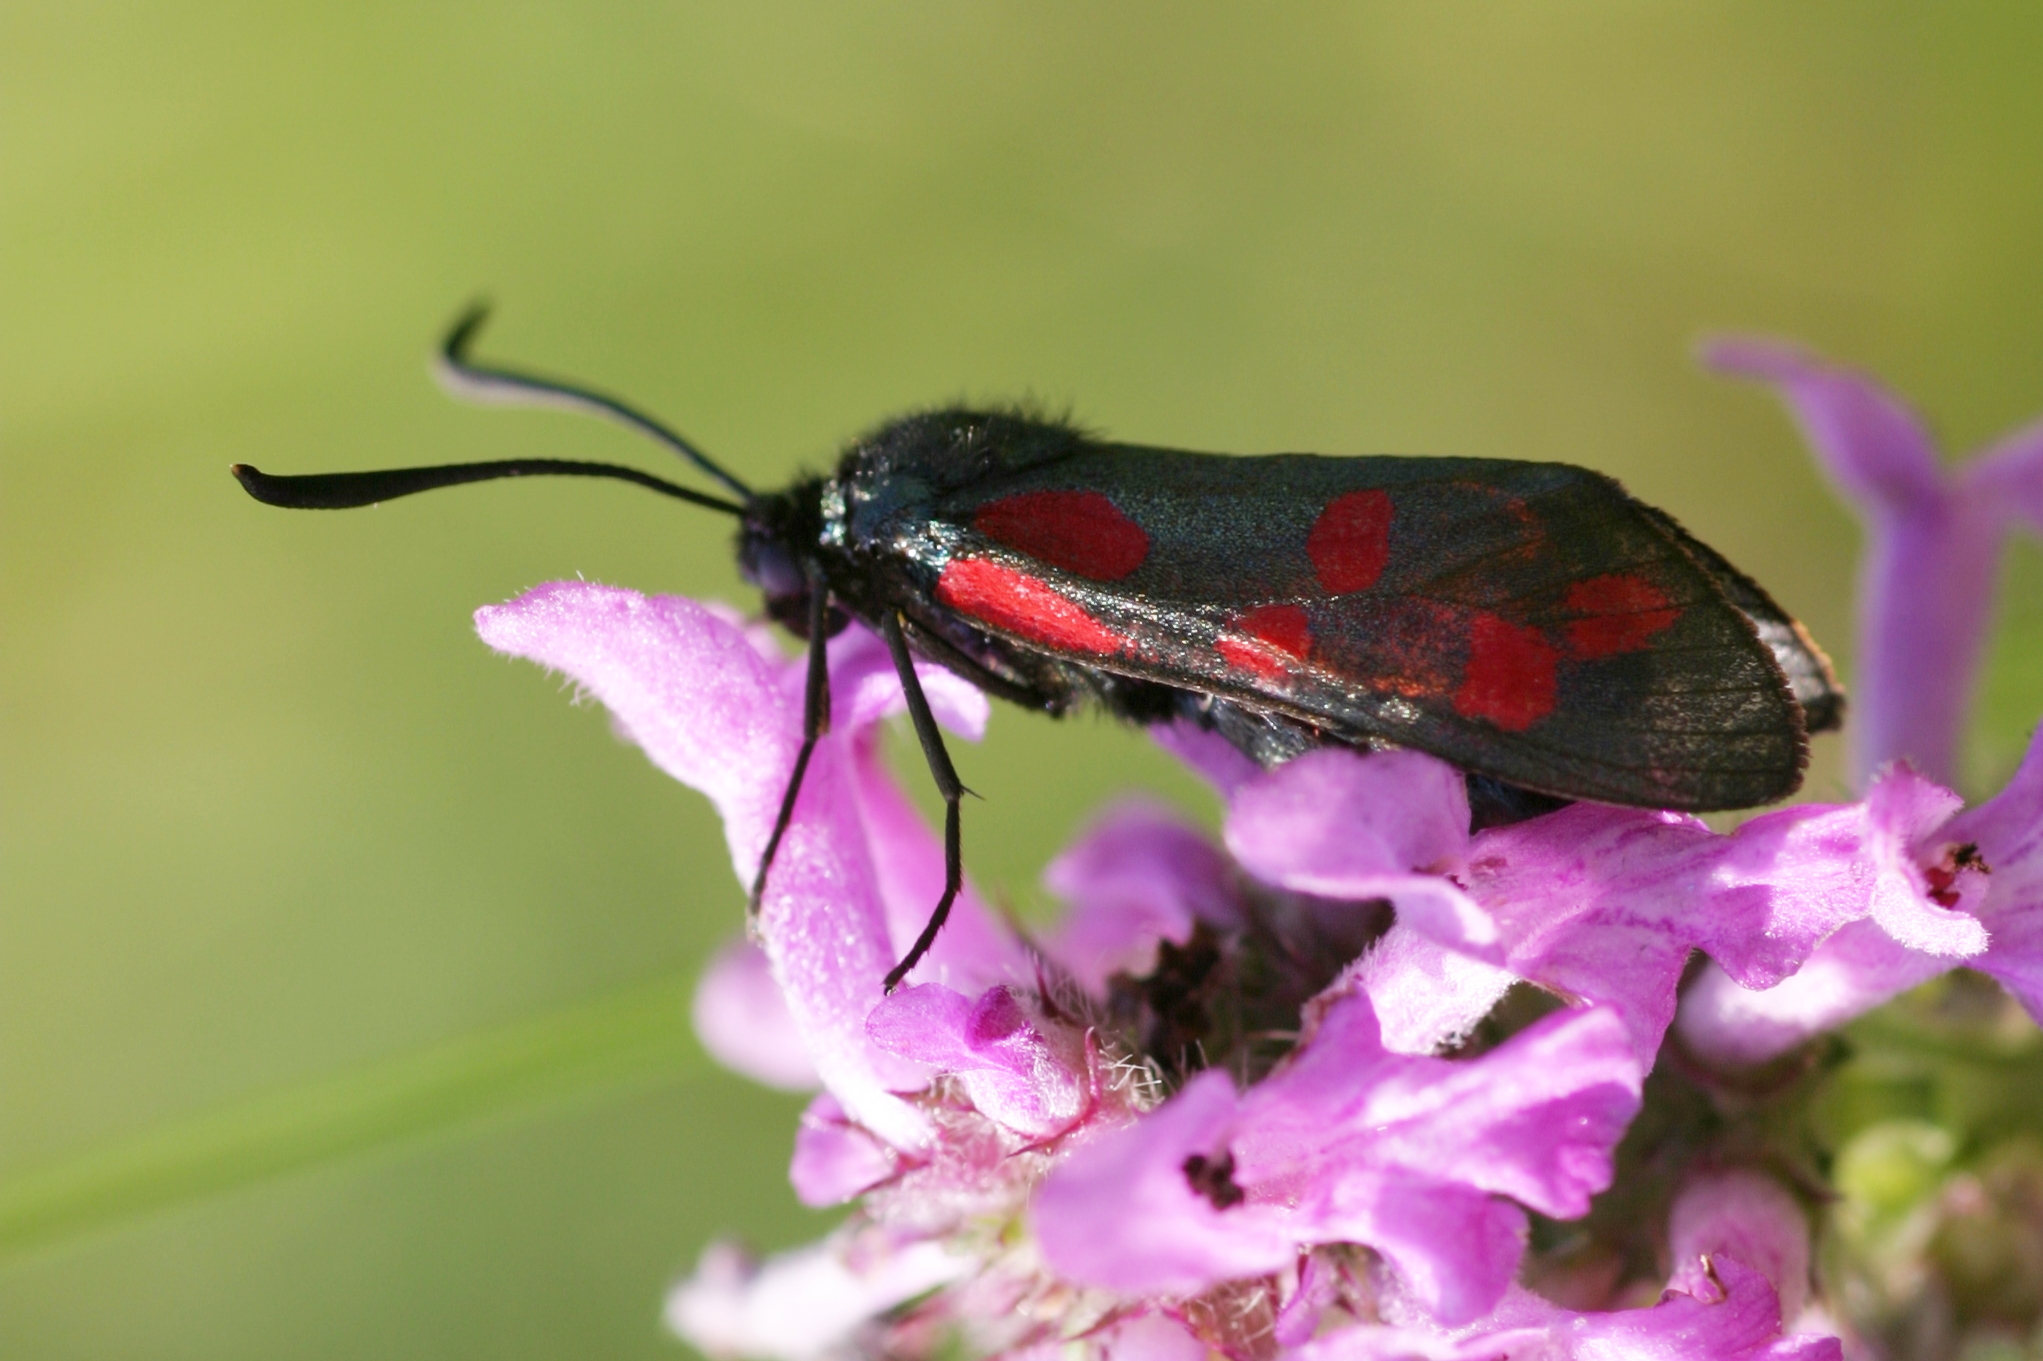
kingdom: Animalia
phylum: Arthropoda
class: Insecta
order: Lepidoptera
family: Zygaenidae
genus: Zygaena
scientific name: Zygaena filipendulae
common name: Six-spot burnet
